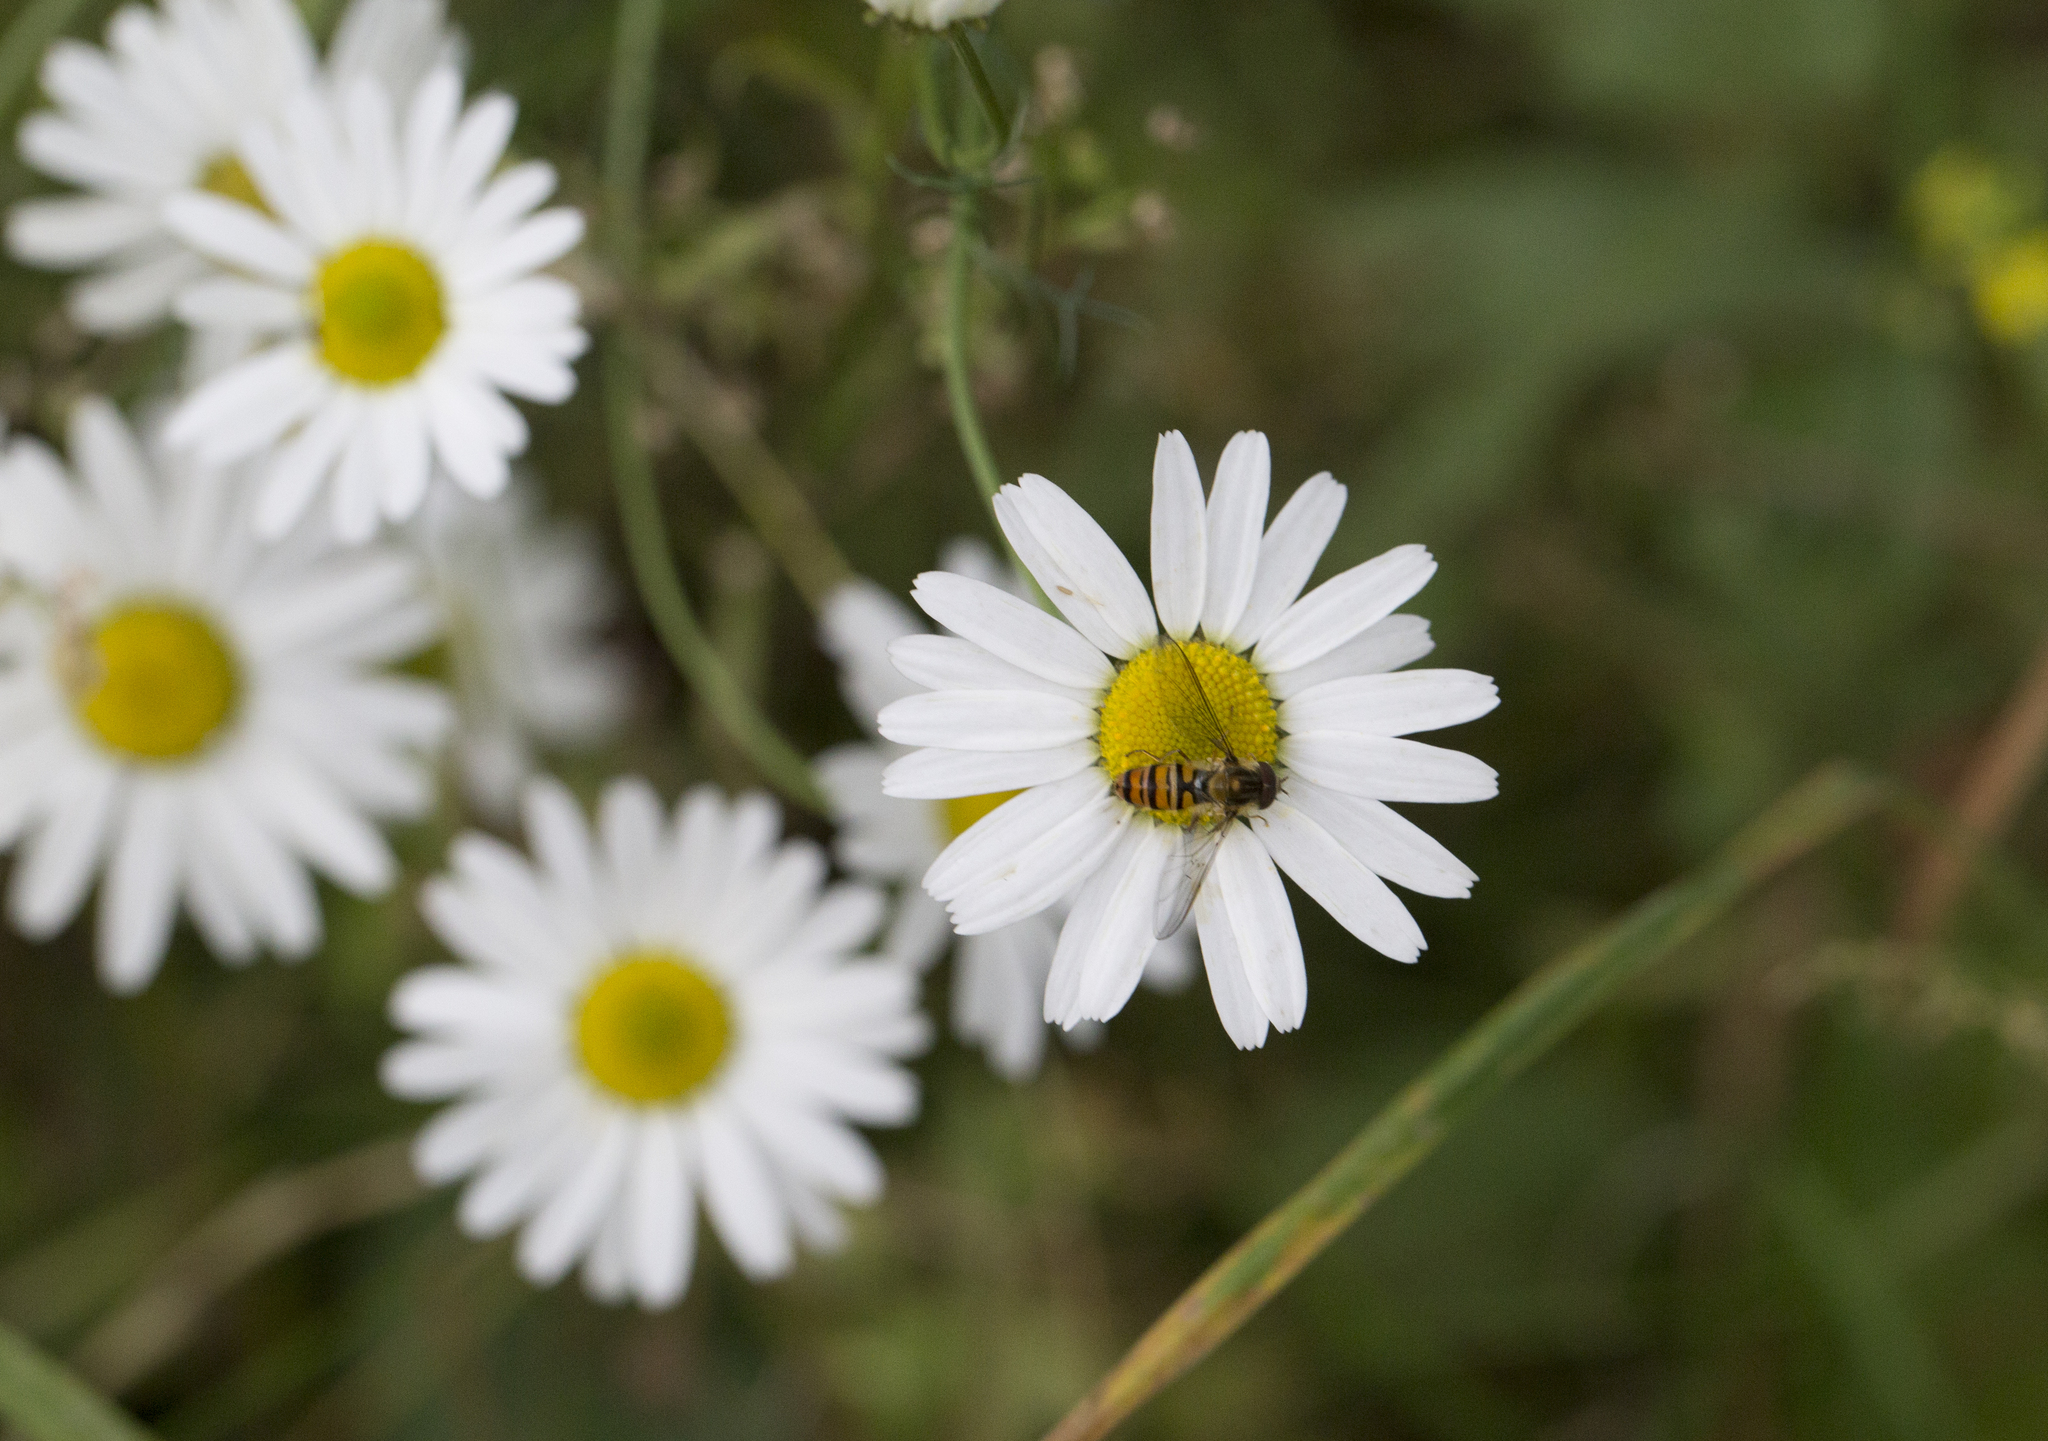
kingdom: Plantae
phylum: Tracheophyta
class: Magnoliopsida
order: Asterales
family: Asteraceae
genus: Tripleurospermum
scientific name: Tripleurospermum inodorum
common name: Scentless mayweed
